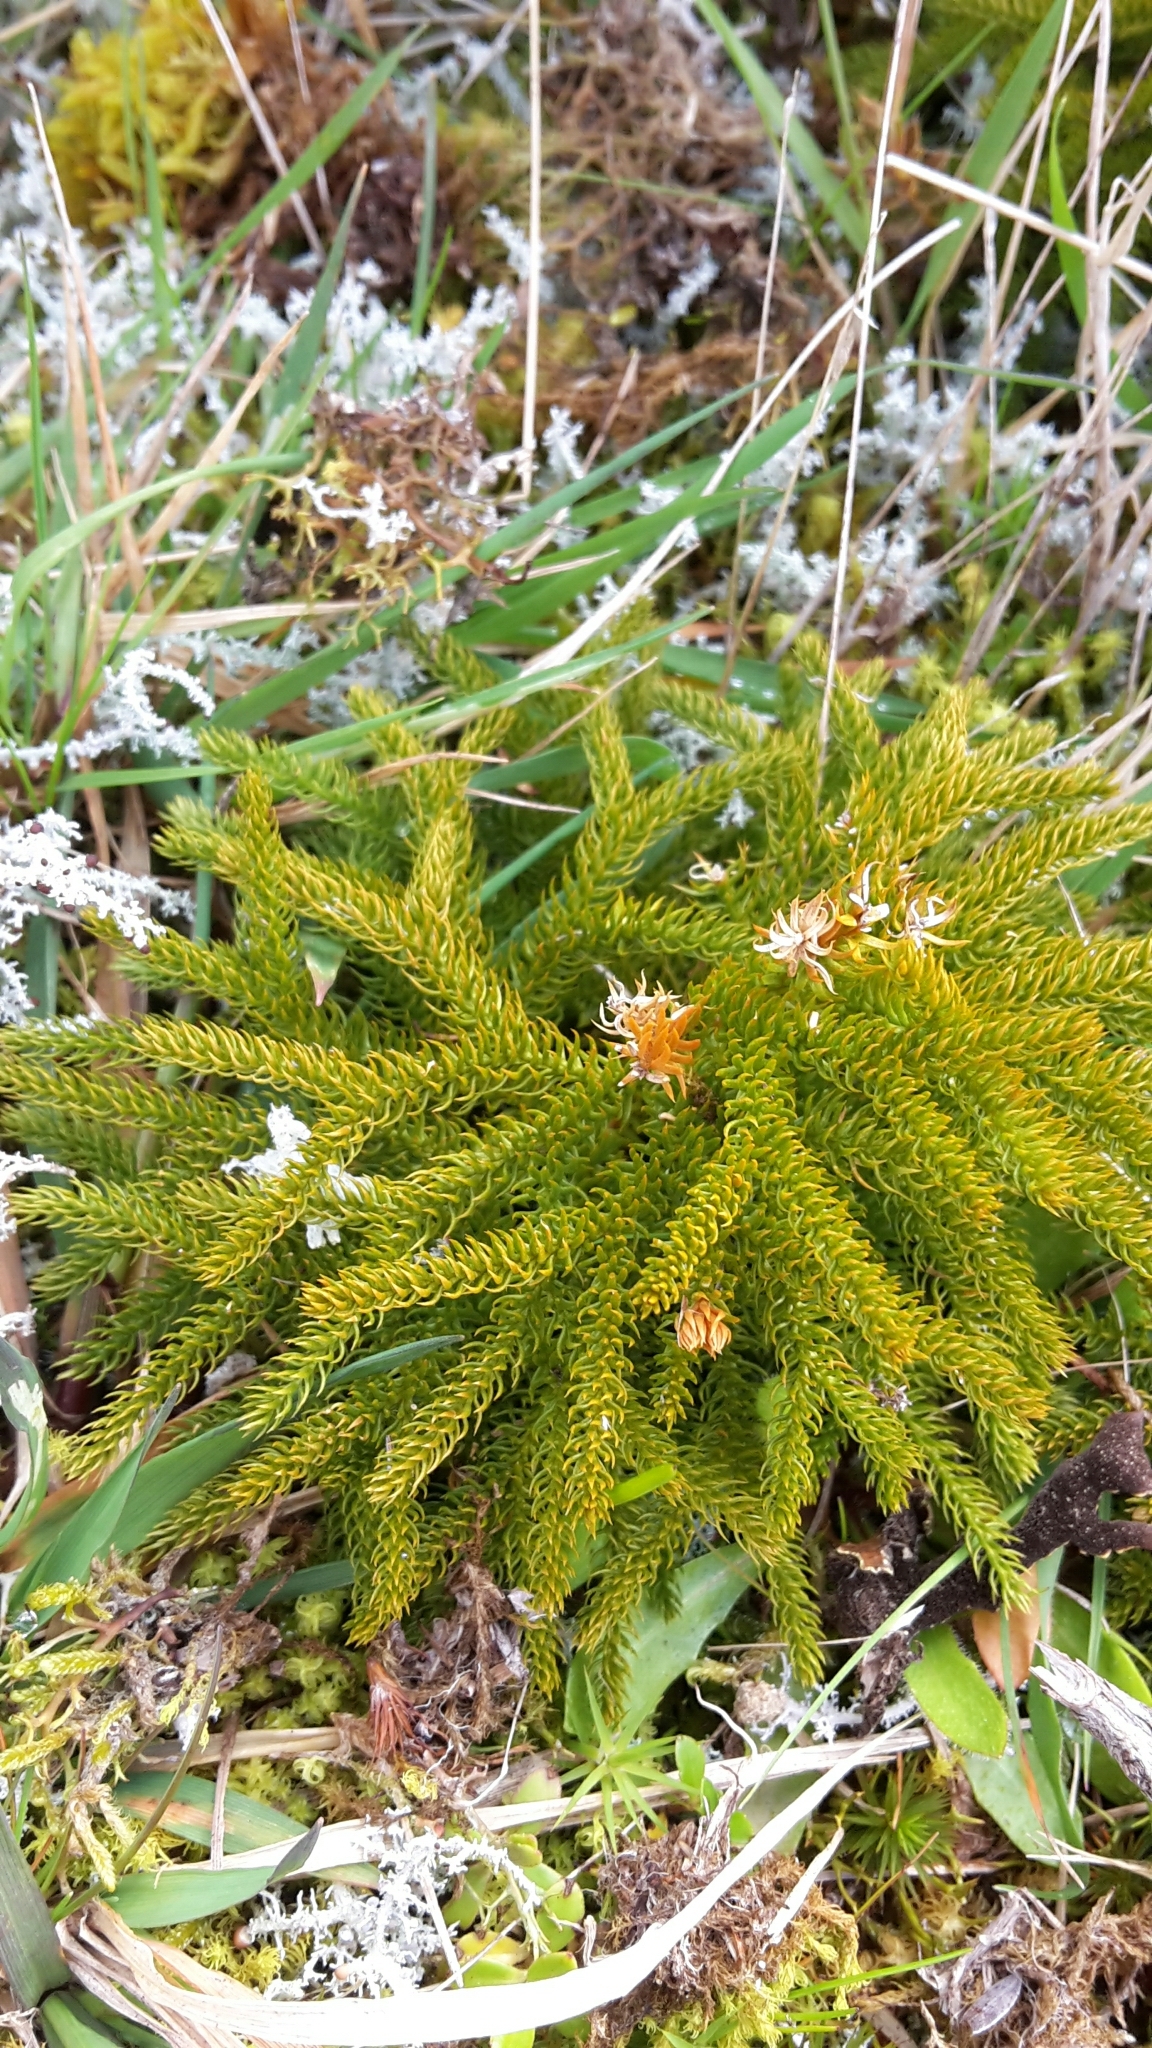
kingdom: Plantae
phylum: Tracheophyta
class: Lycopodiopsida
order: Lycopodiales
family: Lycopodiaceae
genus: Austrolycopodium
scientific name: Austrolycopodium fastigiatum
